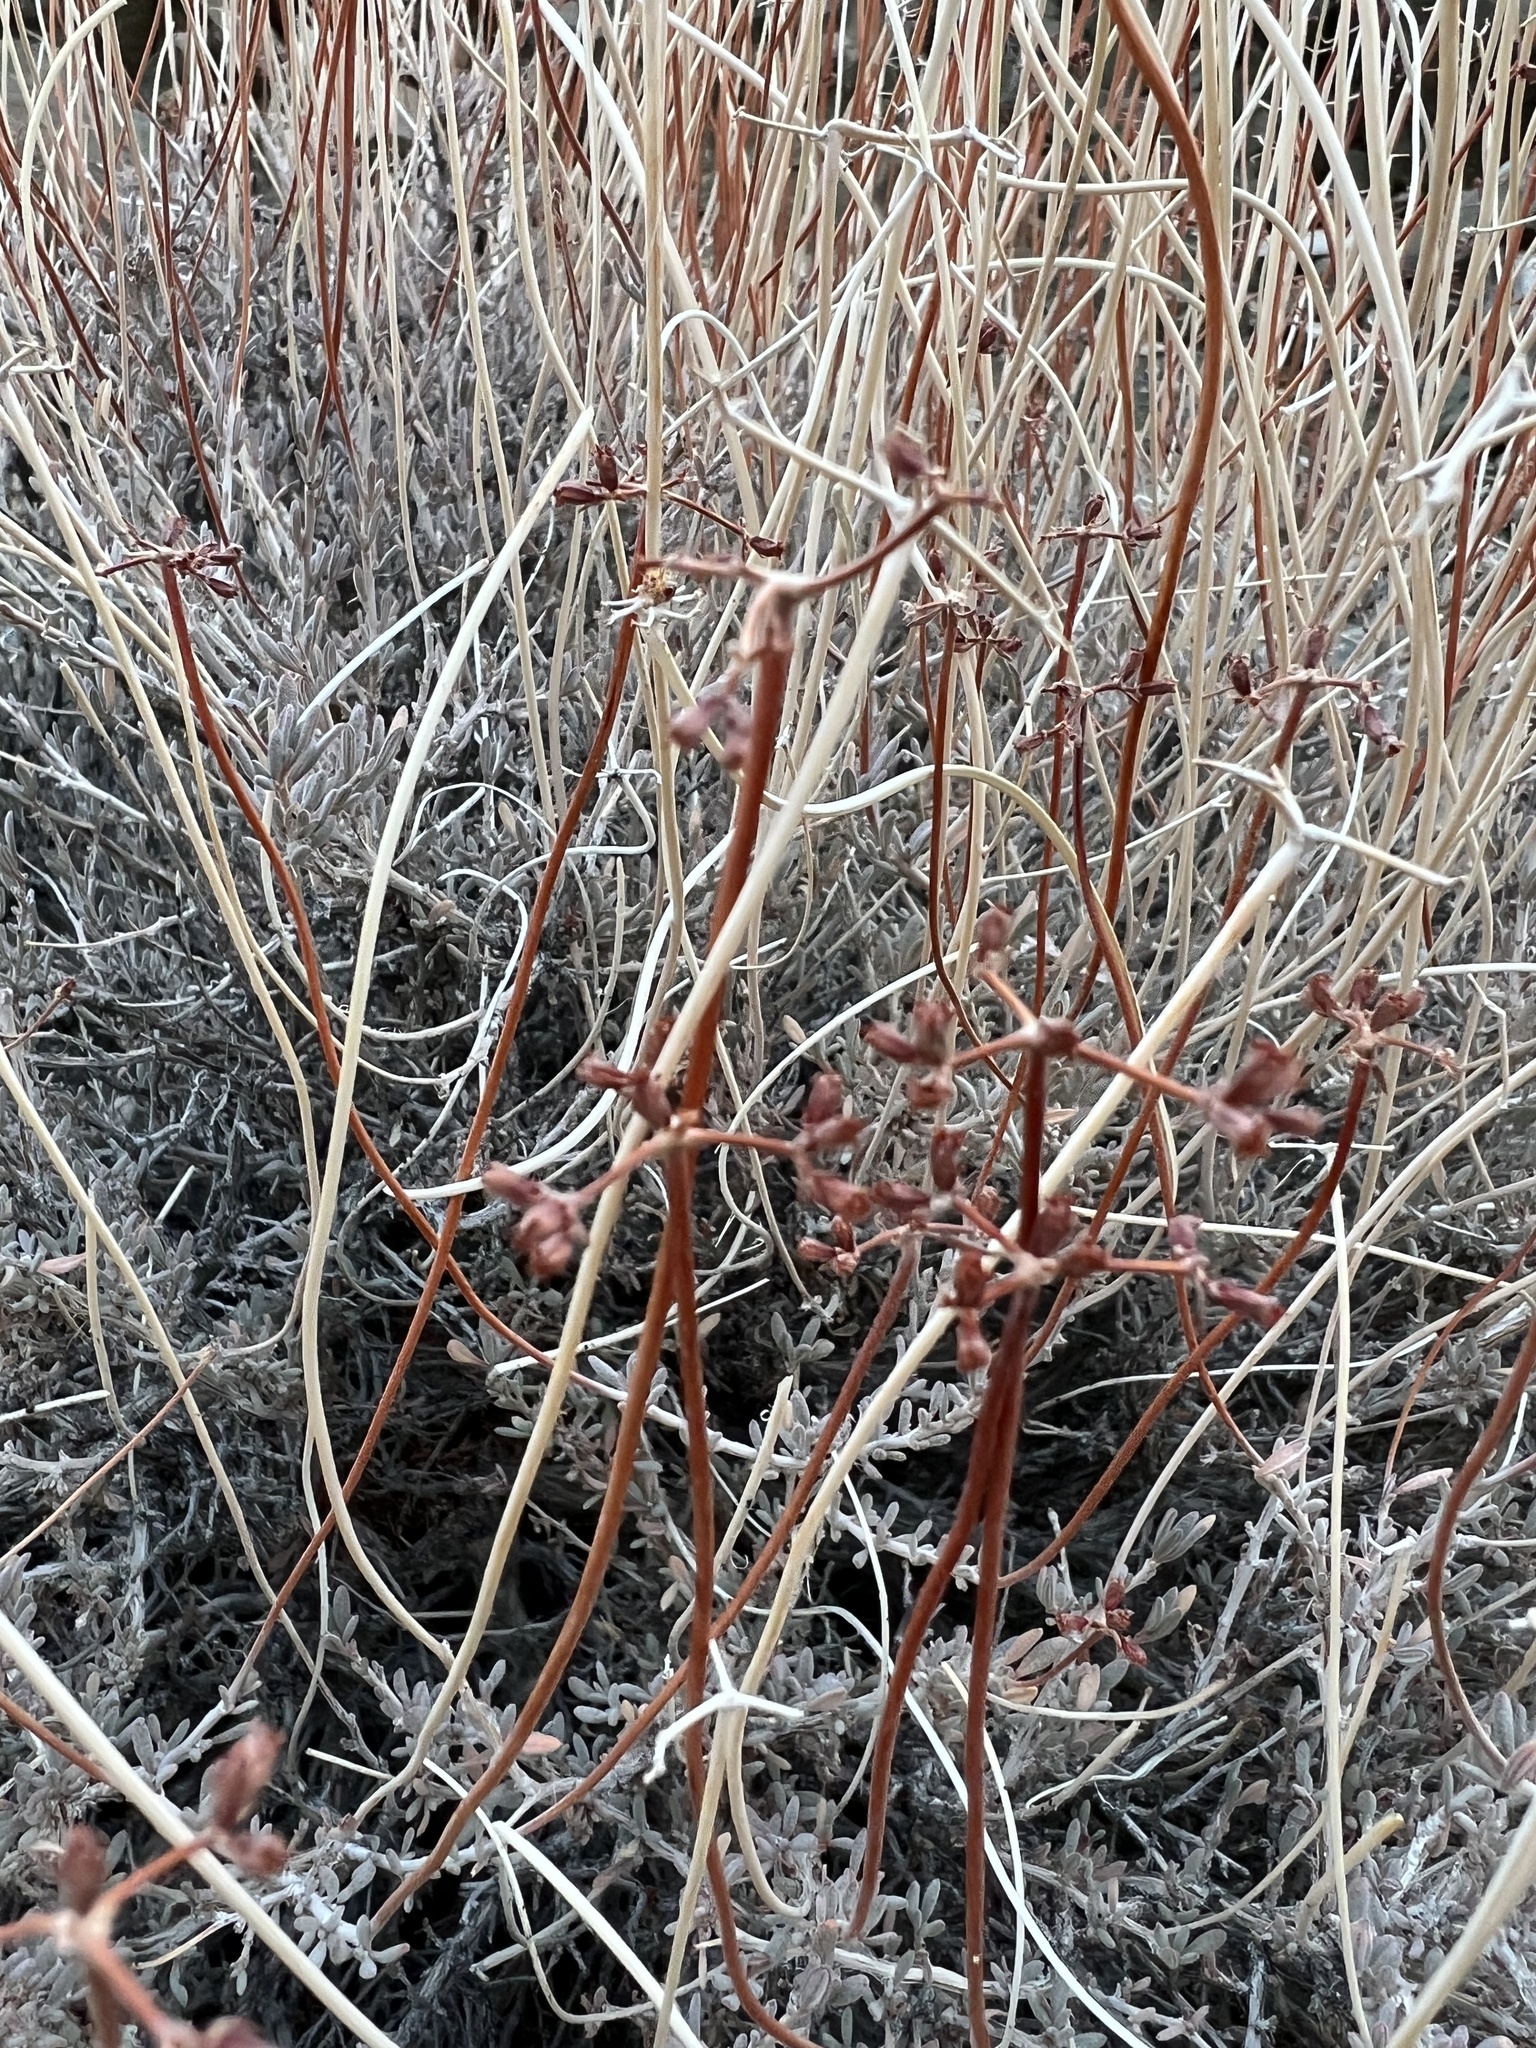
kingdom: Plantae
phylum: Tracheophyta
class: Magnoliopsida
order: Caryophyllales
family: Polygonaceae
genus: Eriogonum
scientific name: Eriogonum fasciculatum
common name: California wild buckwheat
